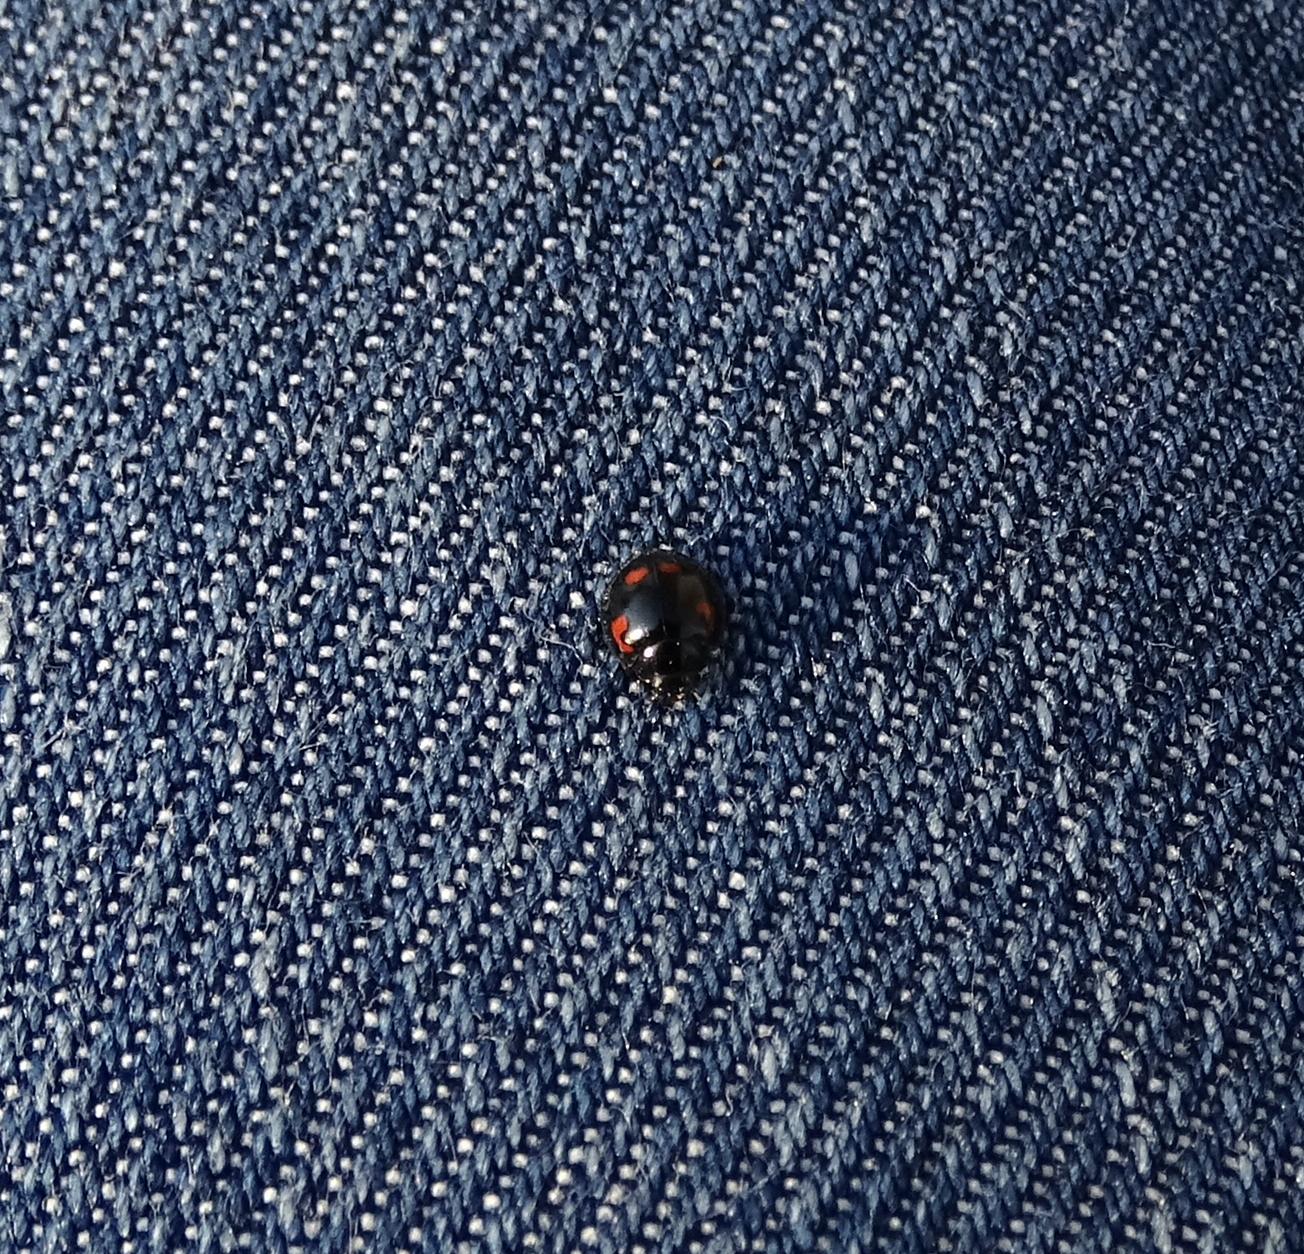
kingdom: Animalia
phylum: Arthropoda
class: Insecta
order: Coleoptera
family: Coccinellidae
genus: Brumus
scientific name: Brumus quadripustulatus
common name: Ladybird beetle
